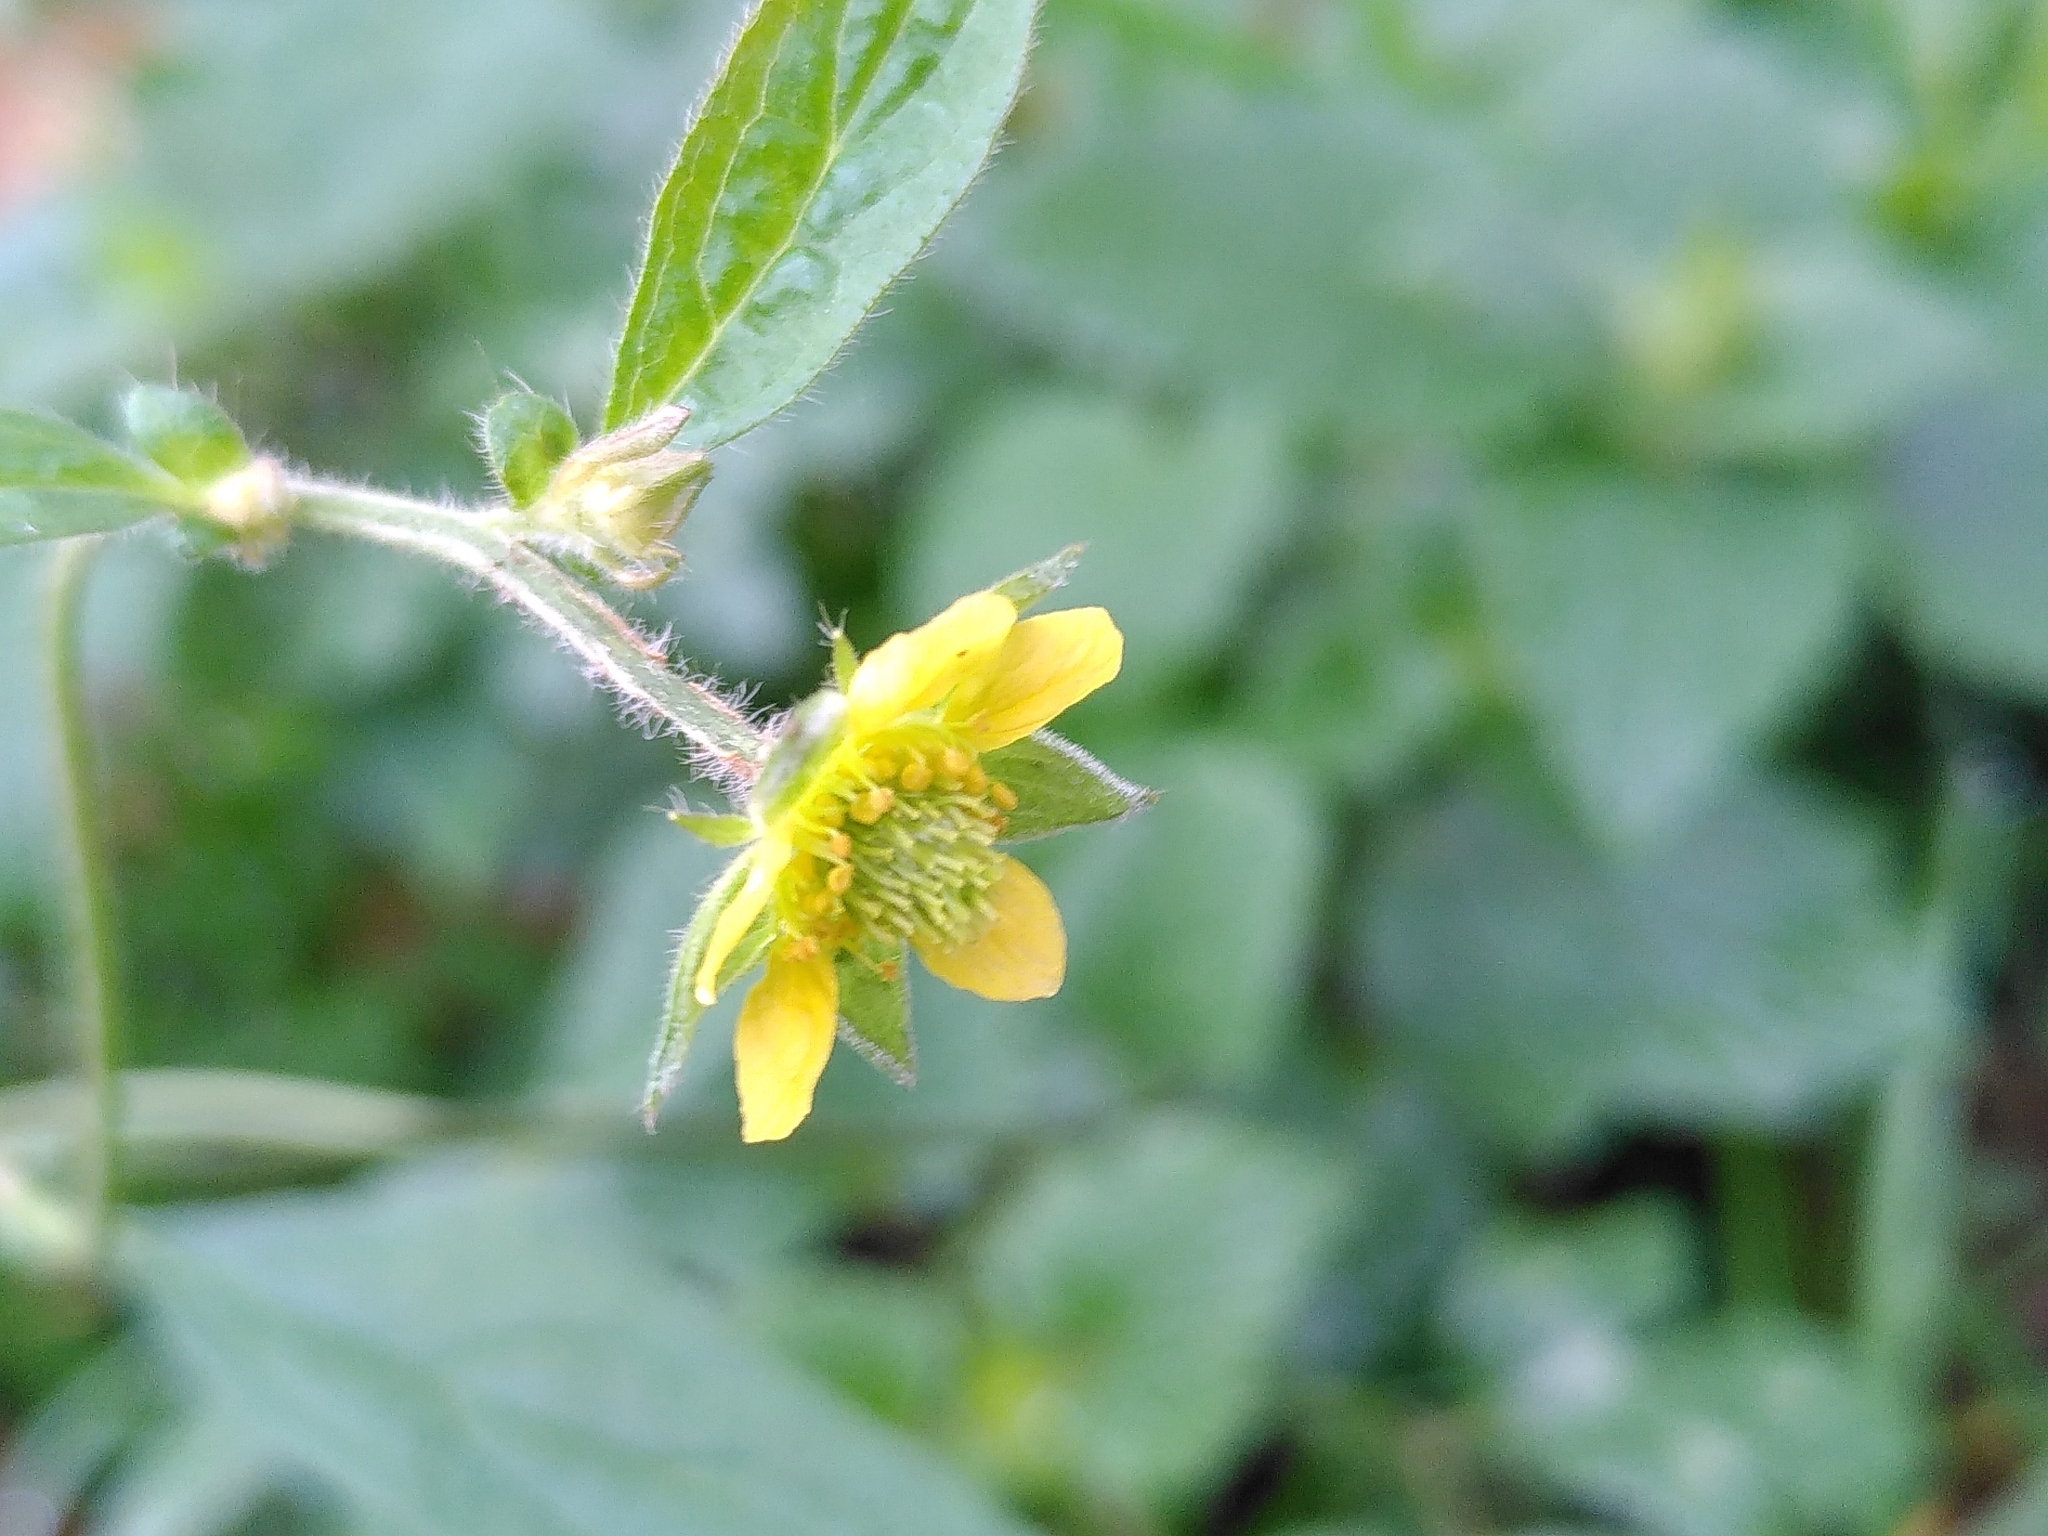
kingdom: Plantae
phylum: Tracheophyta
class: Magnoliopsida
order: Rosales
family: Rosaceae
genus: Geum
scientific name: Geum urbanum
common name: Wood avens
